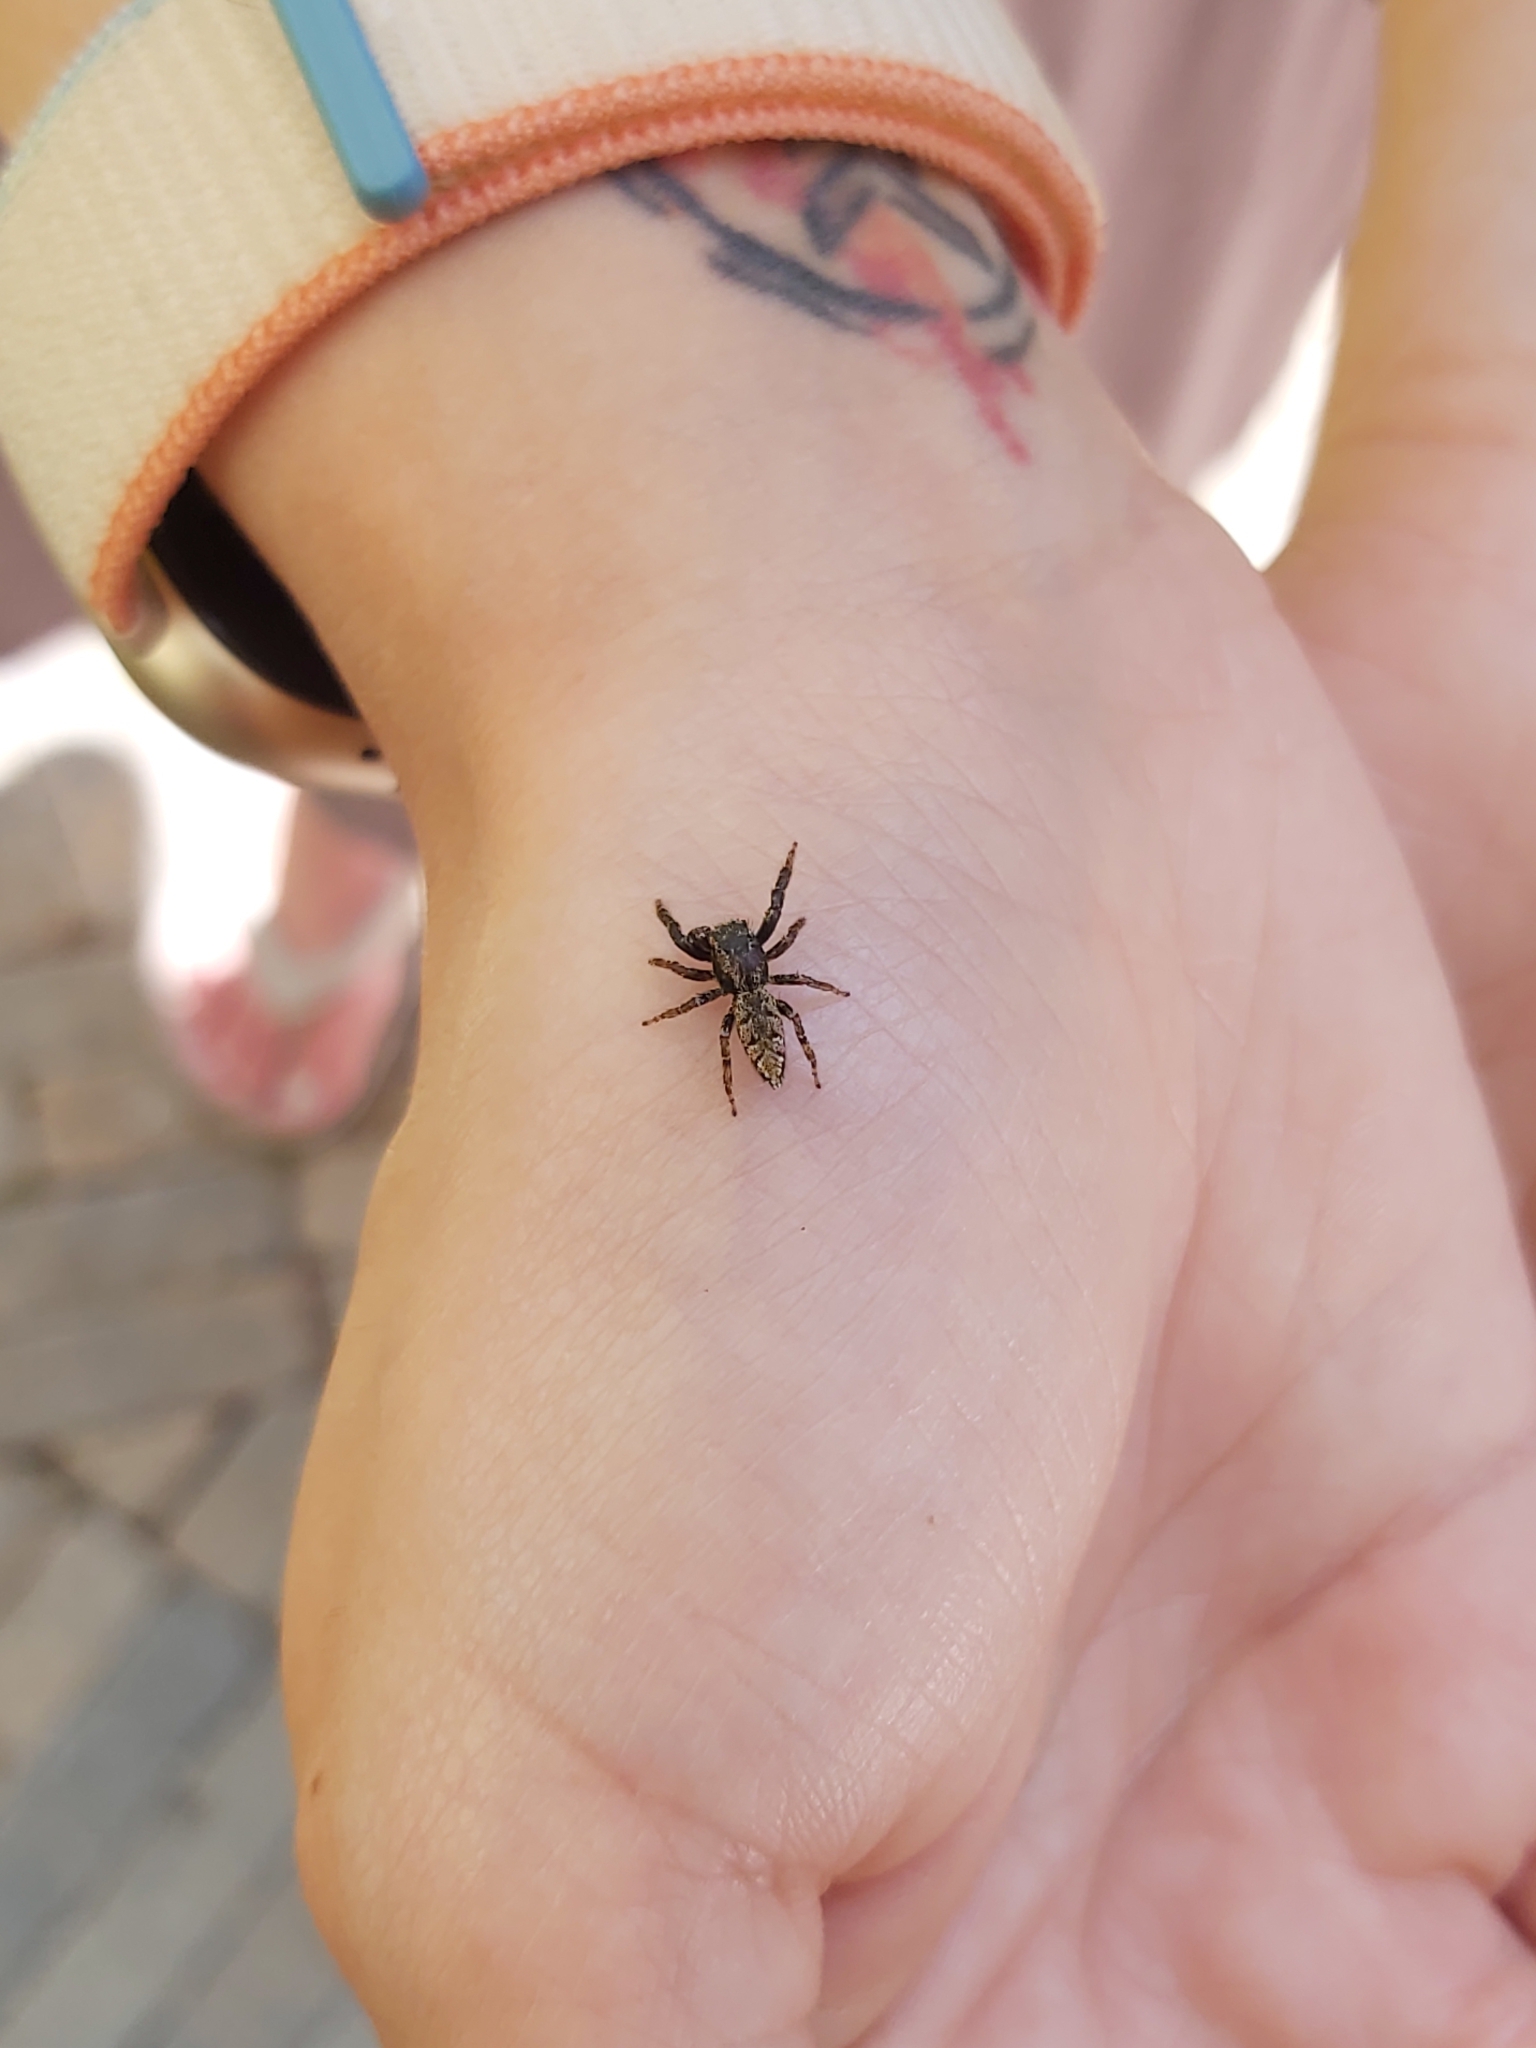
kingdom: Animalia
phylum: Arthropoda
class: Arachnida
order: Araneae
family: Salticidae
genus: Marpissa
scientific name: Marpissa muscosa
